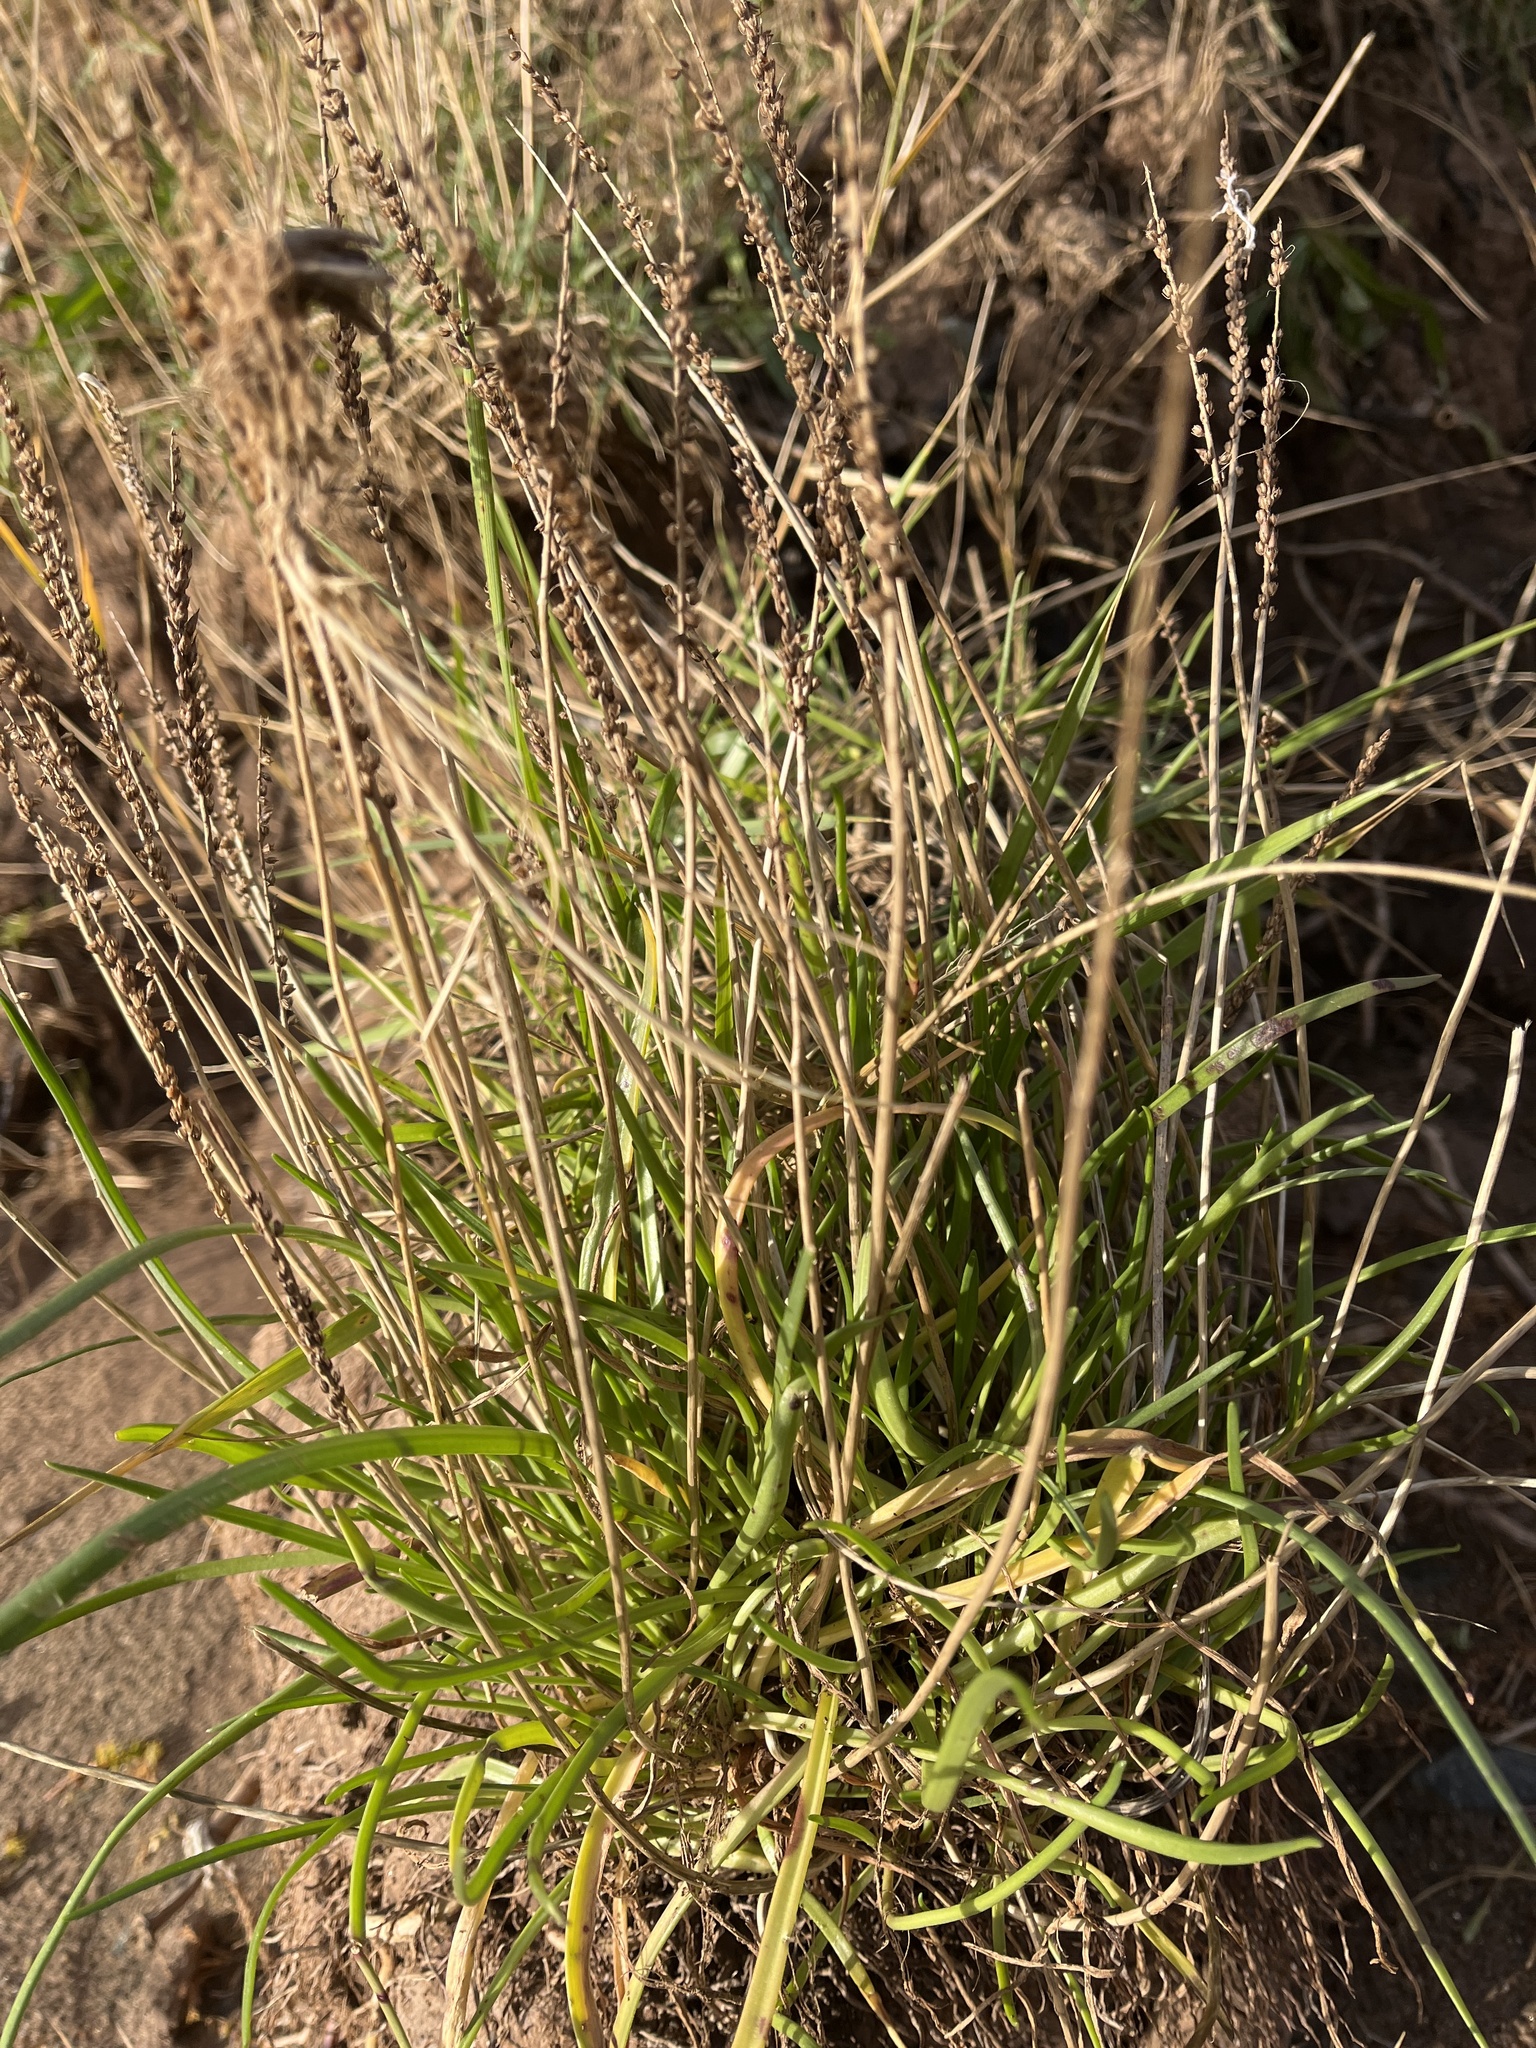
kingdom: Plantae
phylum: Tracheophyta
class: Magnoliopsida
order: Lamiales
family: Plantaginaceae
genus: Plantago
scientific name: Plantago maritima
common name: Sea plantain
